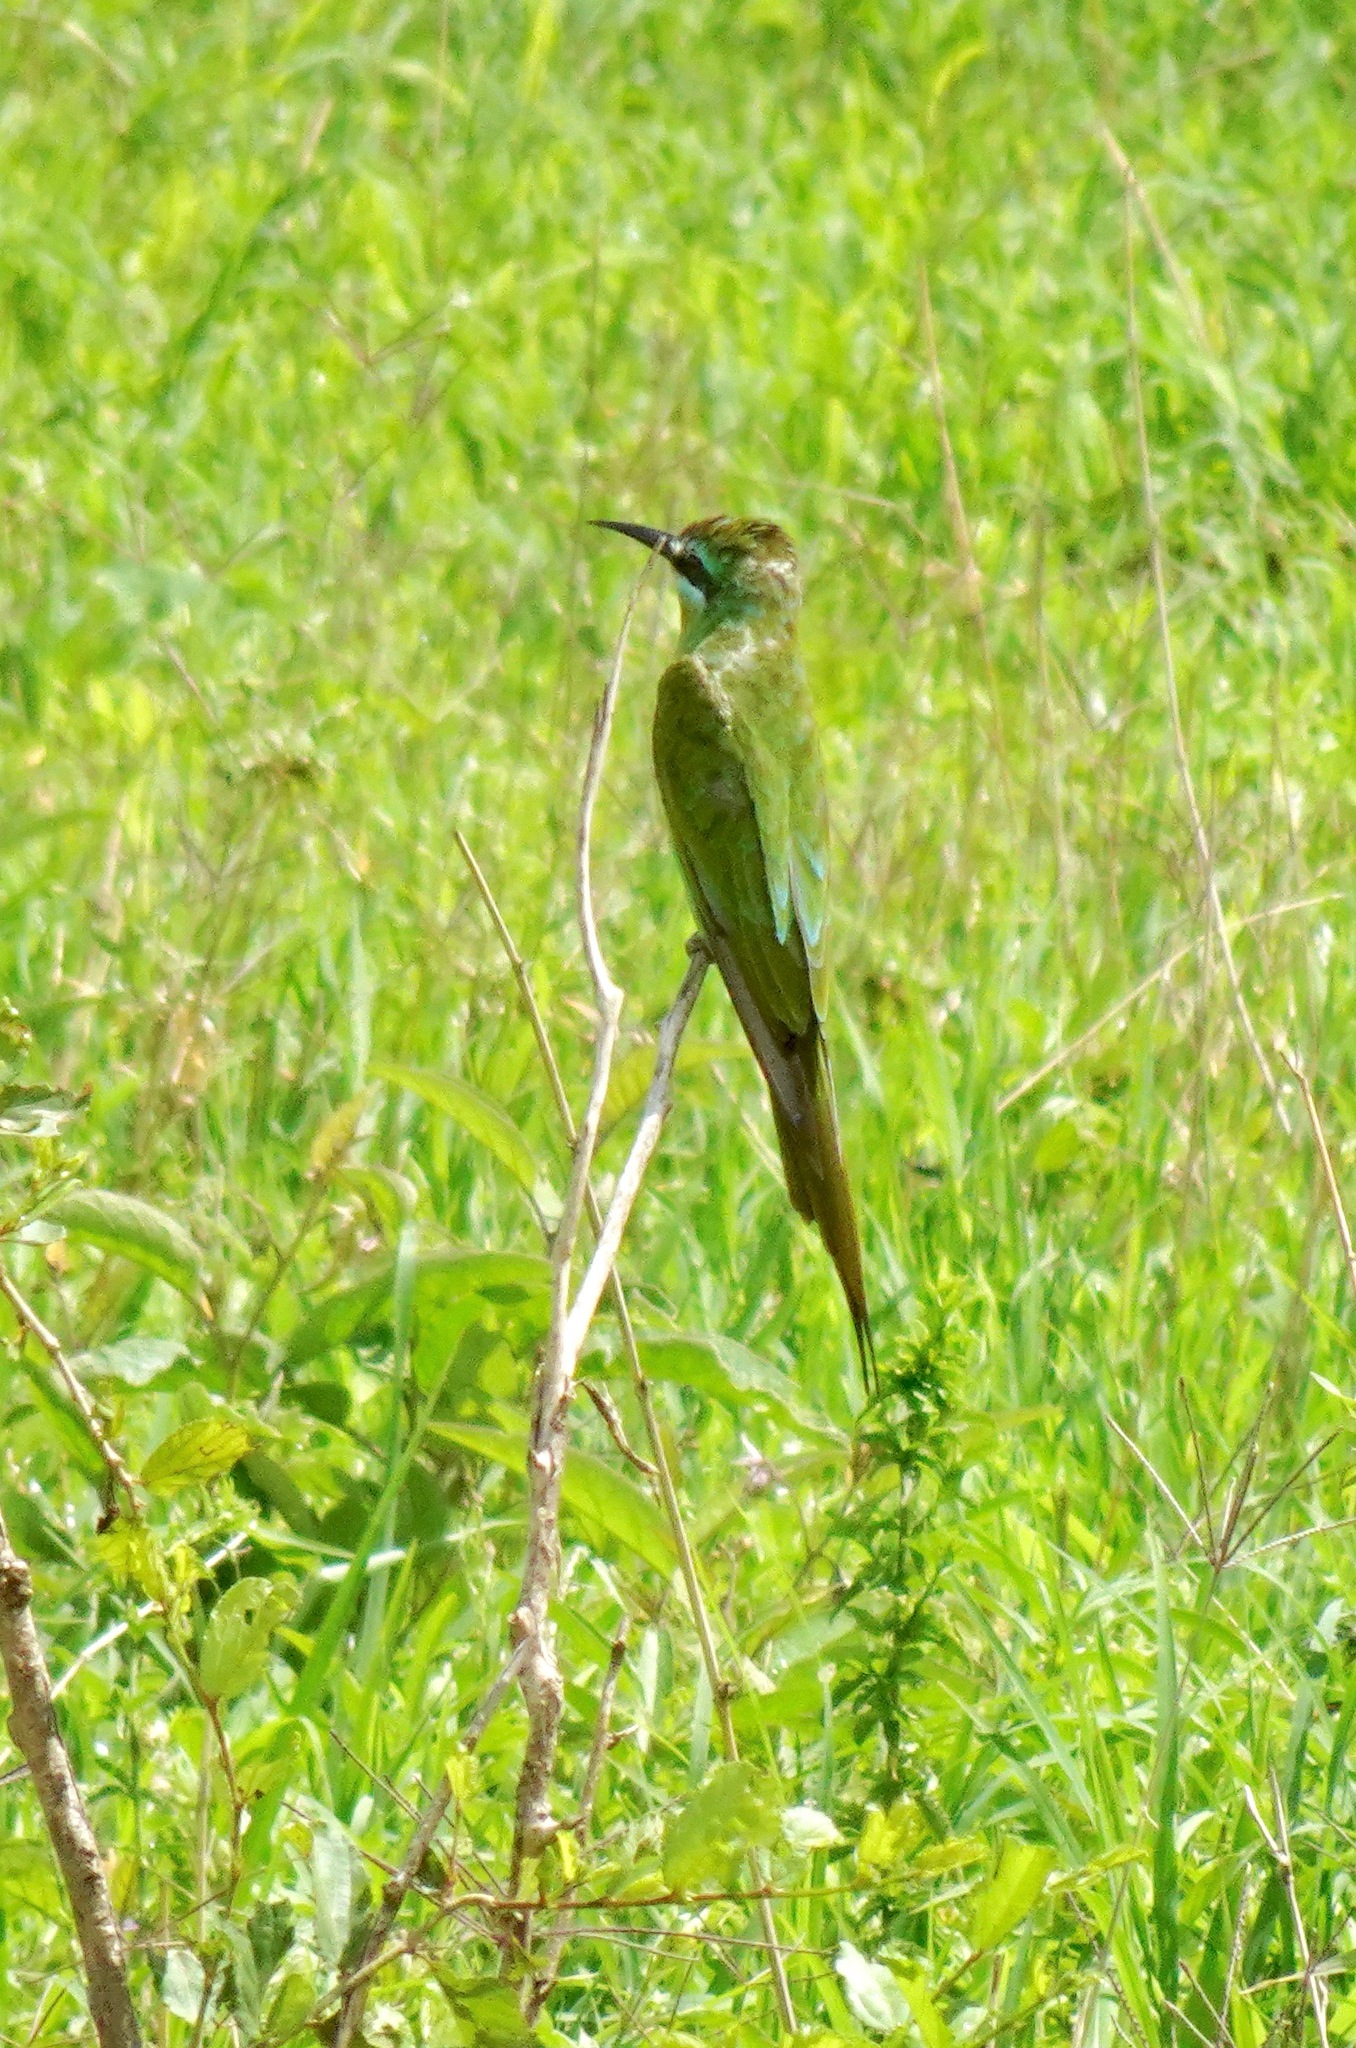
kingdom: Animalia
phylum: Chordata
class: Aves
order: Coraciiformes
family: Meropidae
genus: Merops
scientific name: Merops persicus
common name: Blue-cheeked bee-eater
